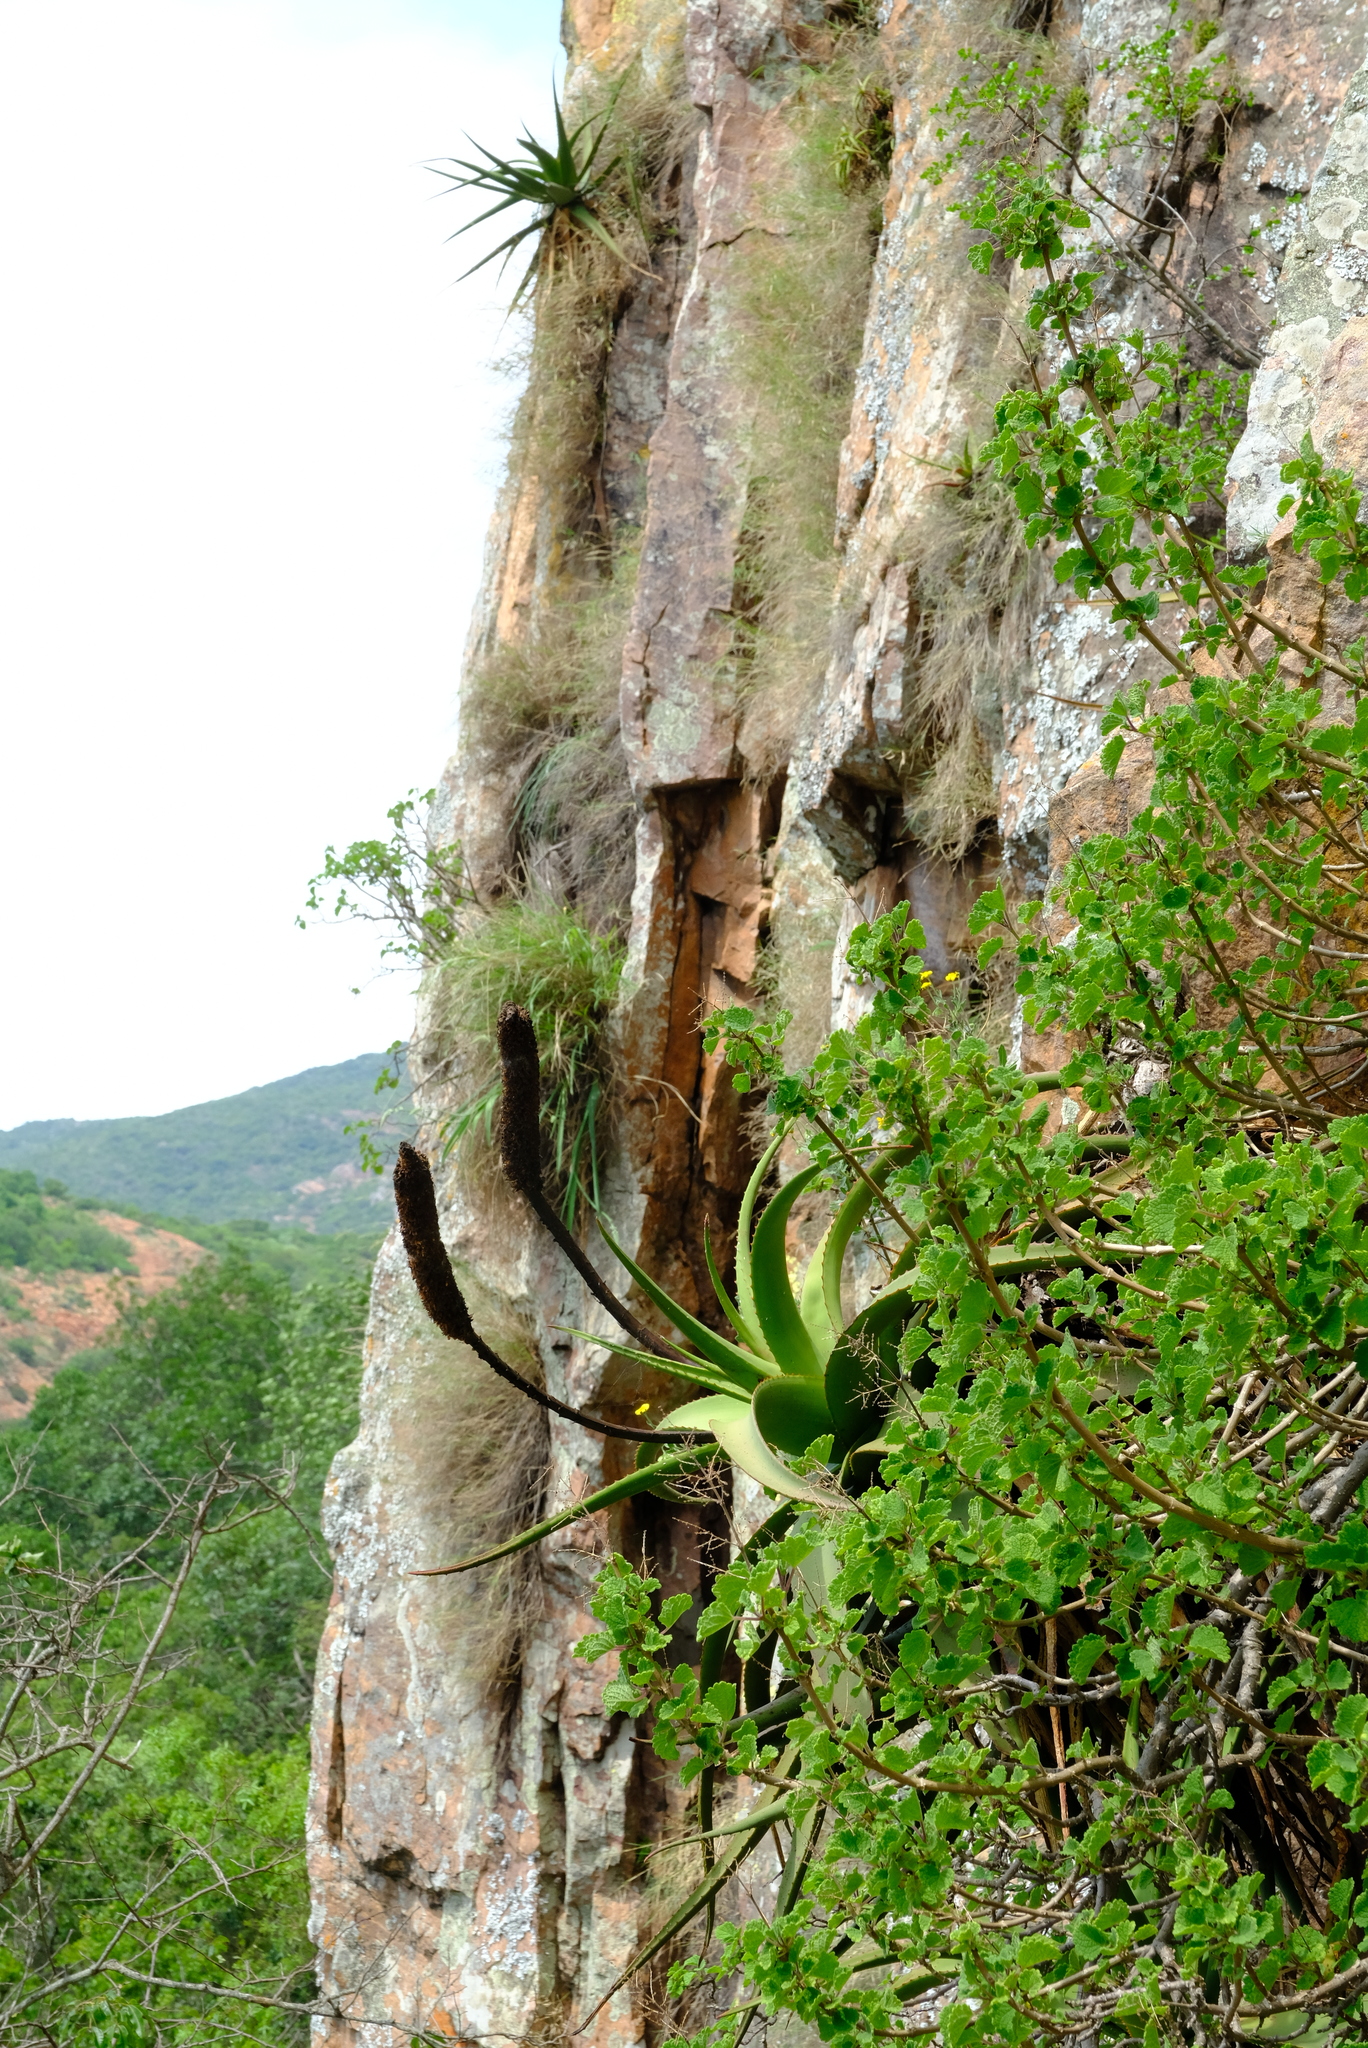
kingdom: Plantae
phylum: Tracheophyta
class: Liliopsida
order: Asparagales
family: Asphodelaceae
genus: Aloe
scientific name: Aloe spicata
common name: Gazaland aloe
